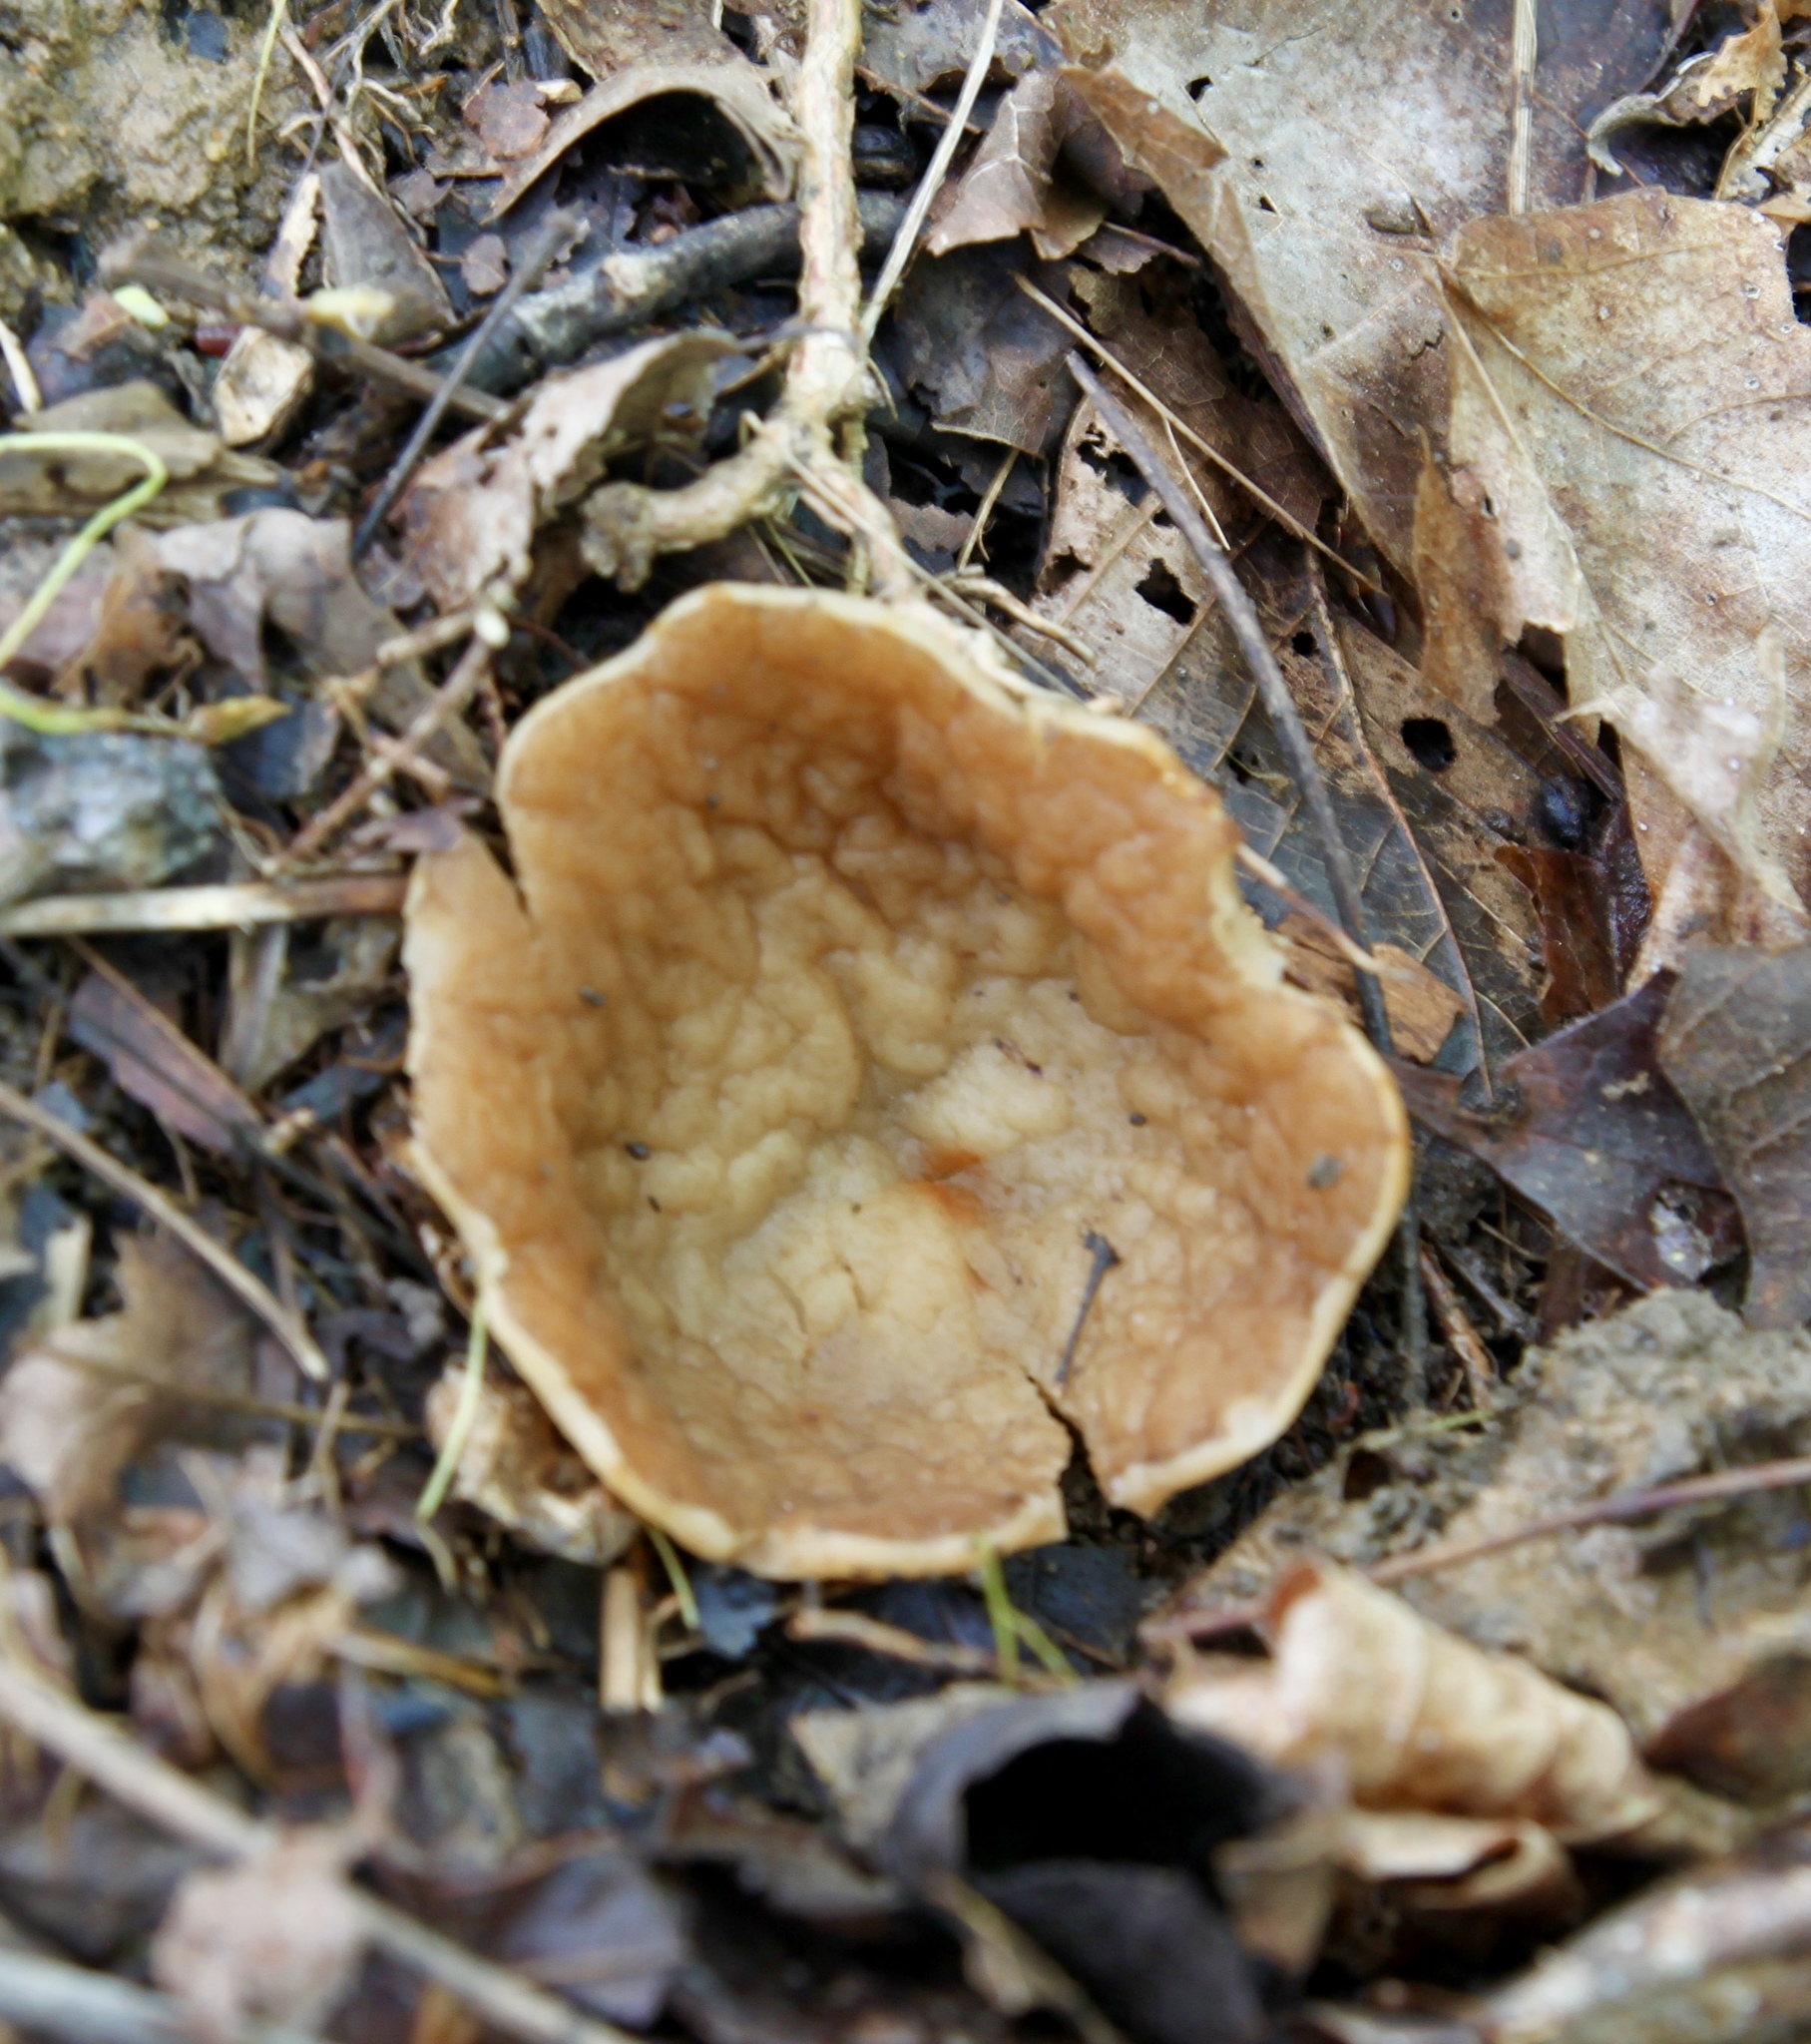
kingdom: Fungi
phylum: Ascomycota
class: Pezizomycetes
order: Pezizales
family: Morchellaceae
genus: Disciotis
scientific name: Disciotis venosa
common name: Bleach cup
